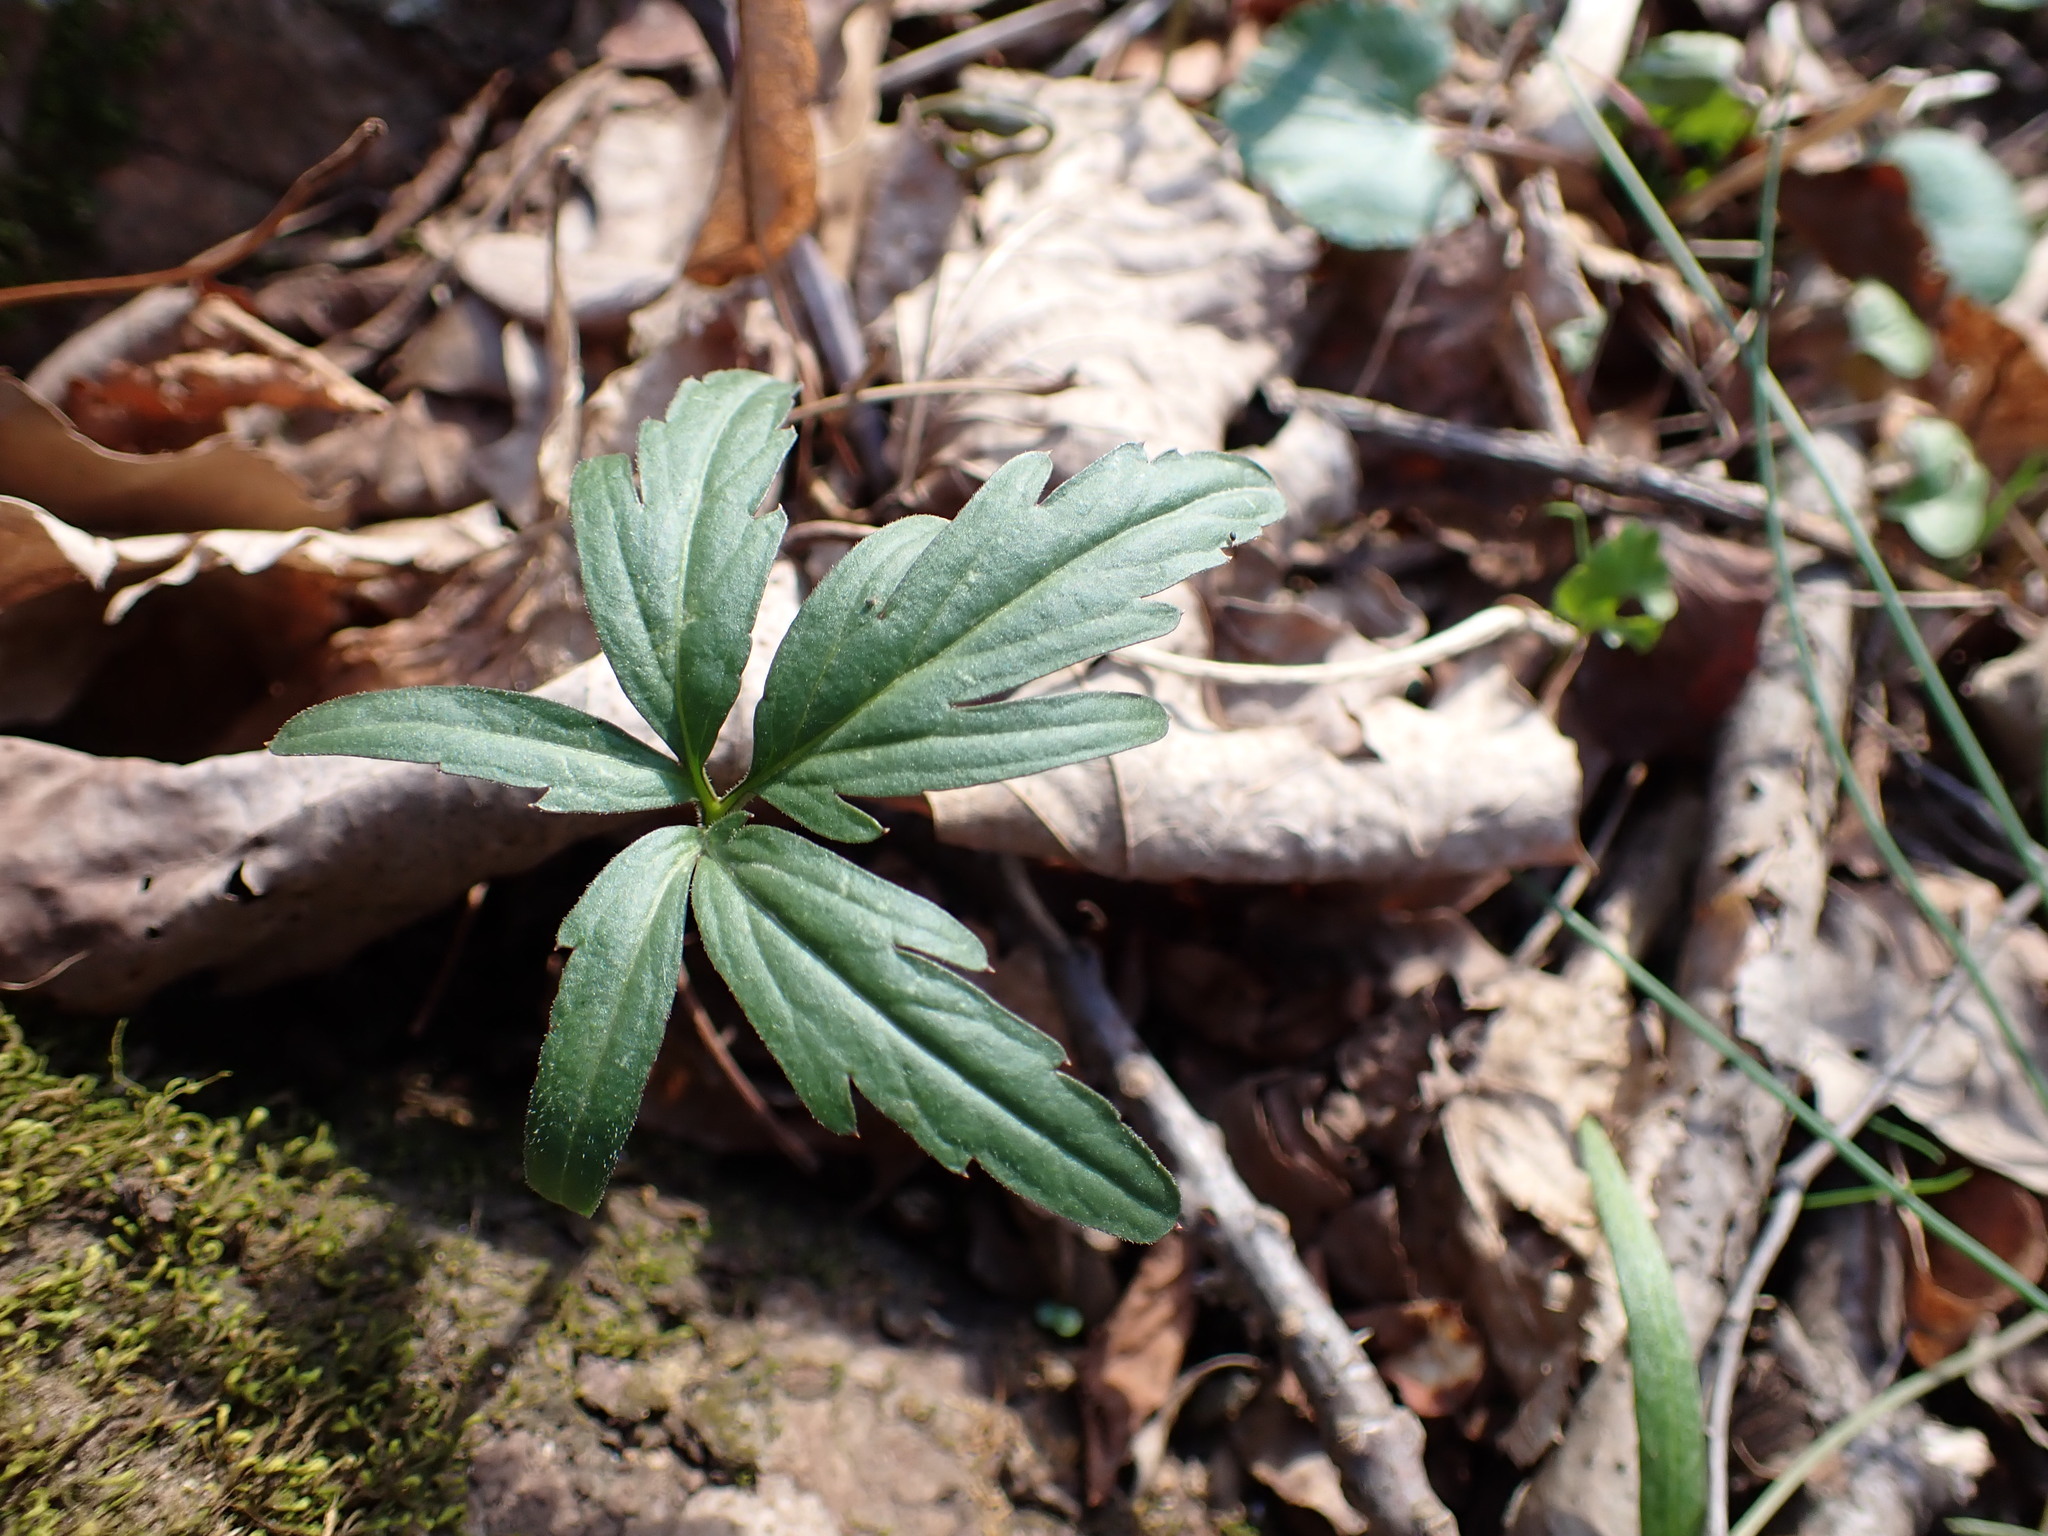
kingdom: Plantae
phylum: Tracheophyta
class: Magnoliopsida
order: Brassicales
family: Brassicaceae
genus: Cardamine
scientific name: Cardamine concatenata
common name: Cut-leaf toothcup
